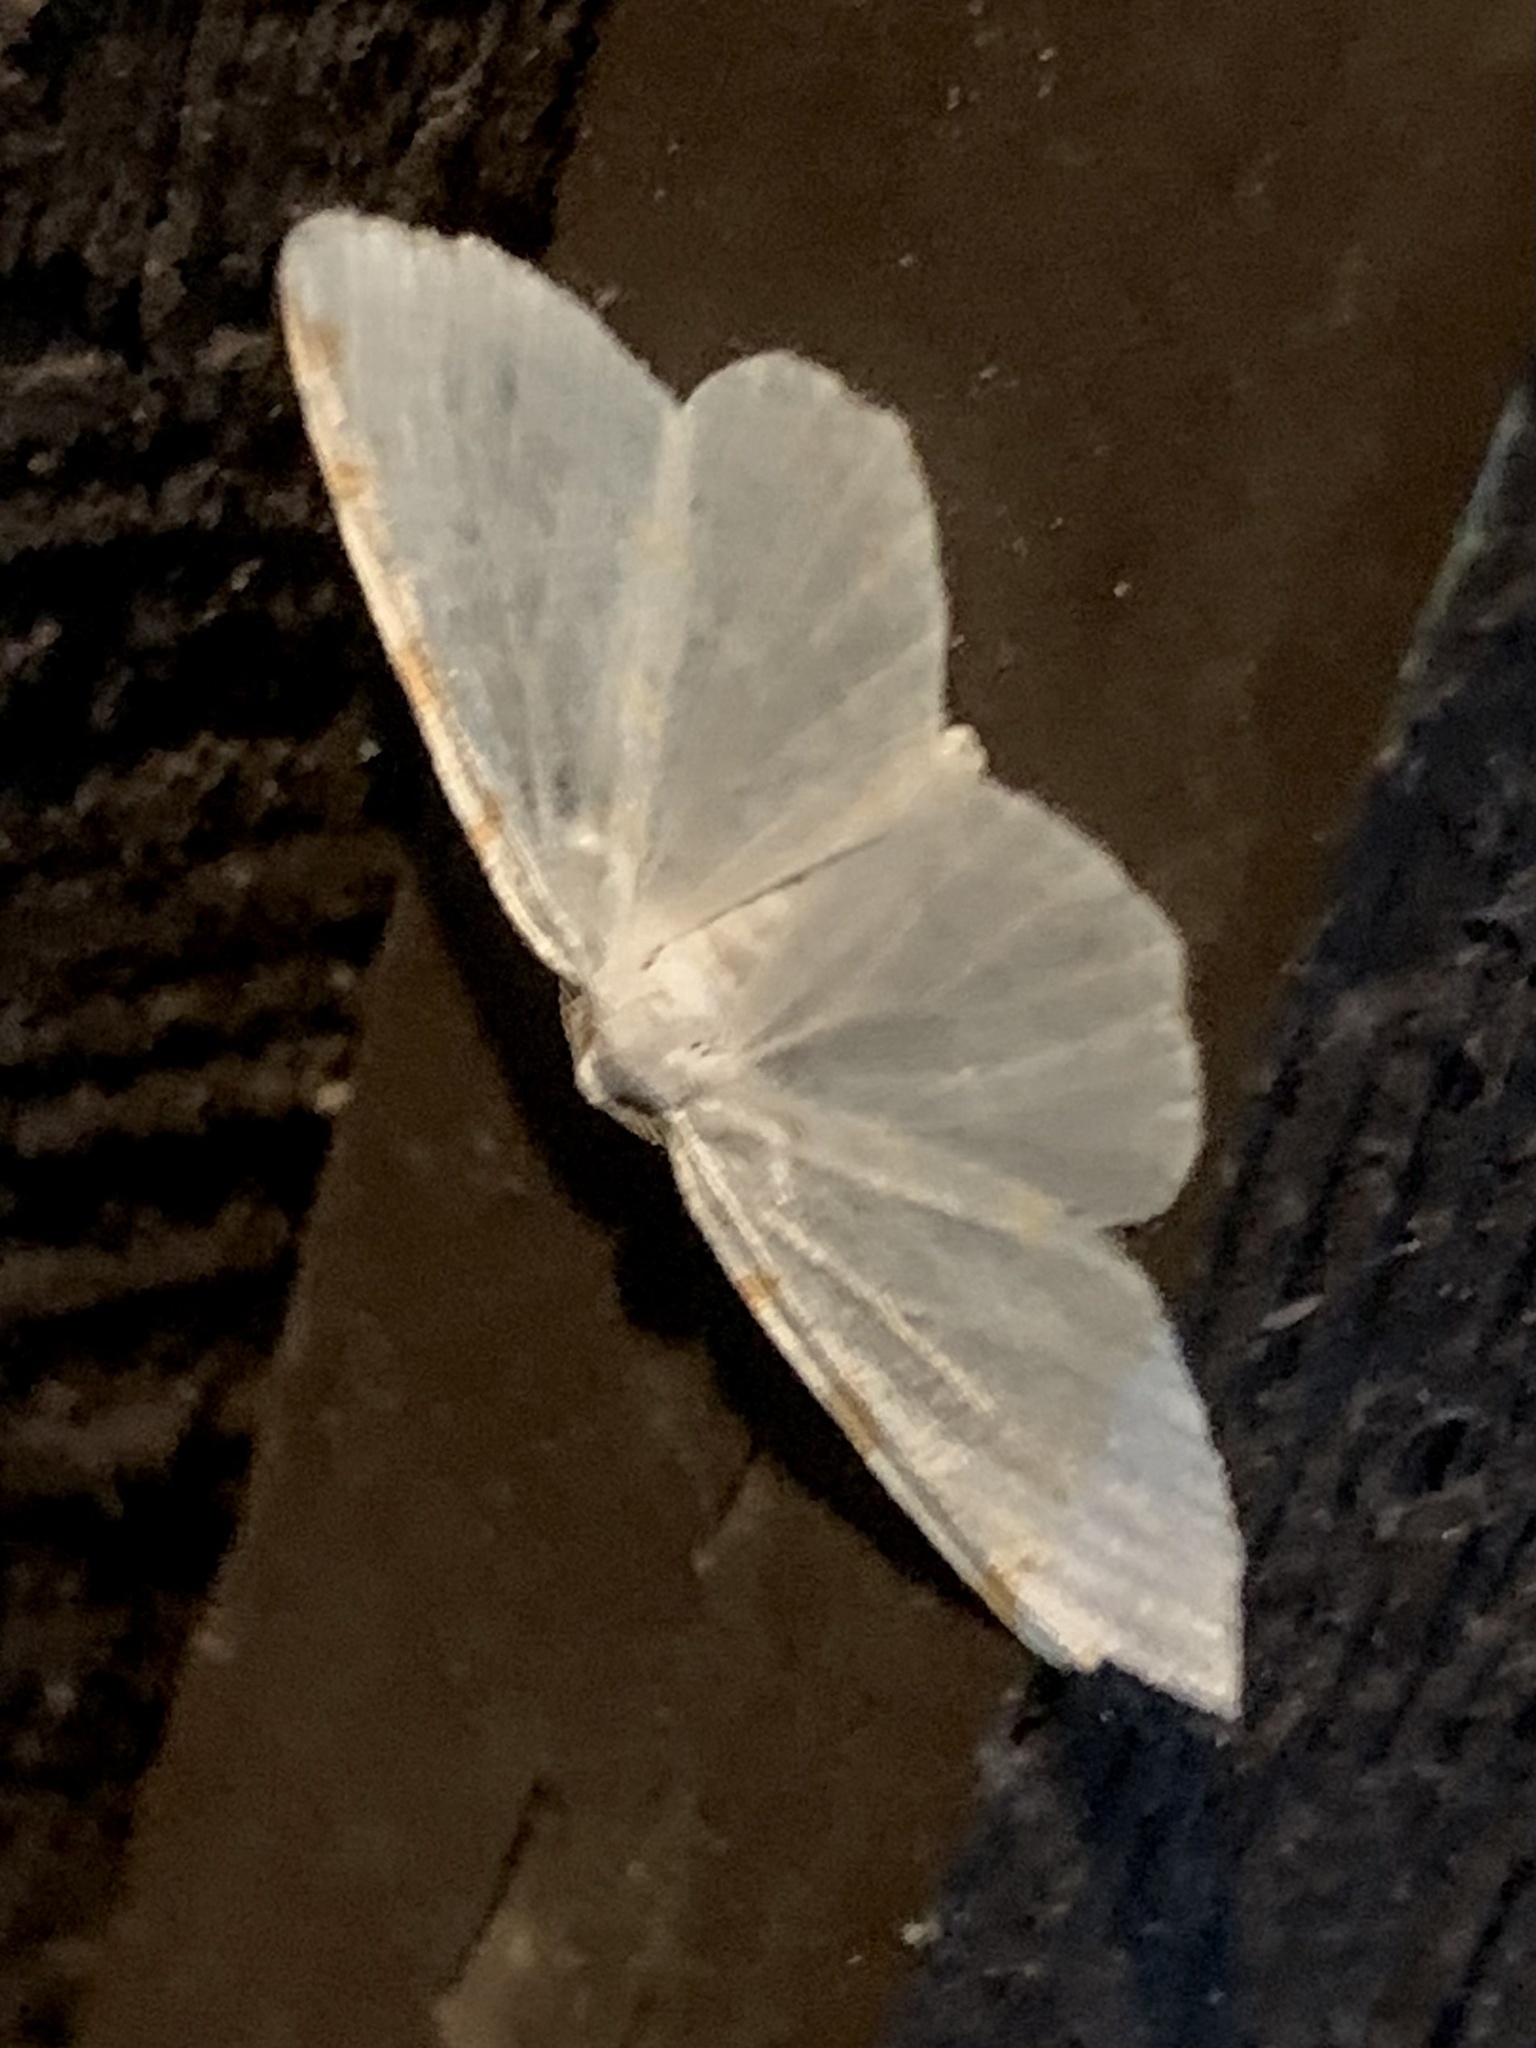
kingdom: Animalia
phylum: Arthropoda
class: Insecta
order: Lepidoptera
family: Geometridae
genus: Macaria
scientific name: Macaria pustularia
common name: Lesser maple spanworm moth
